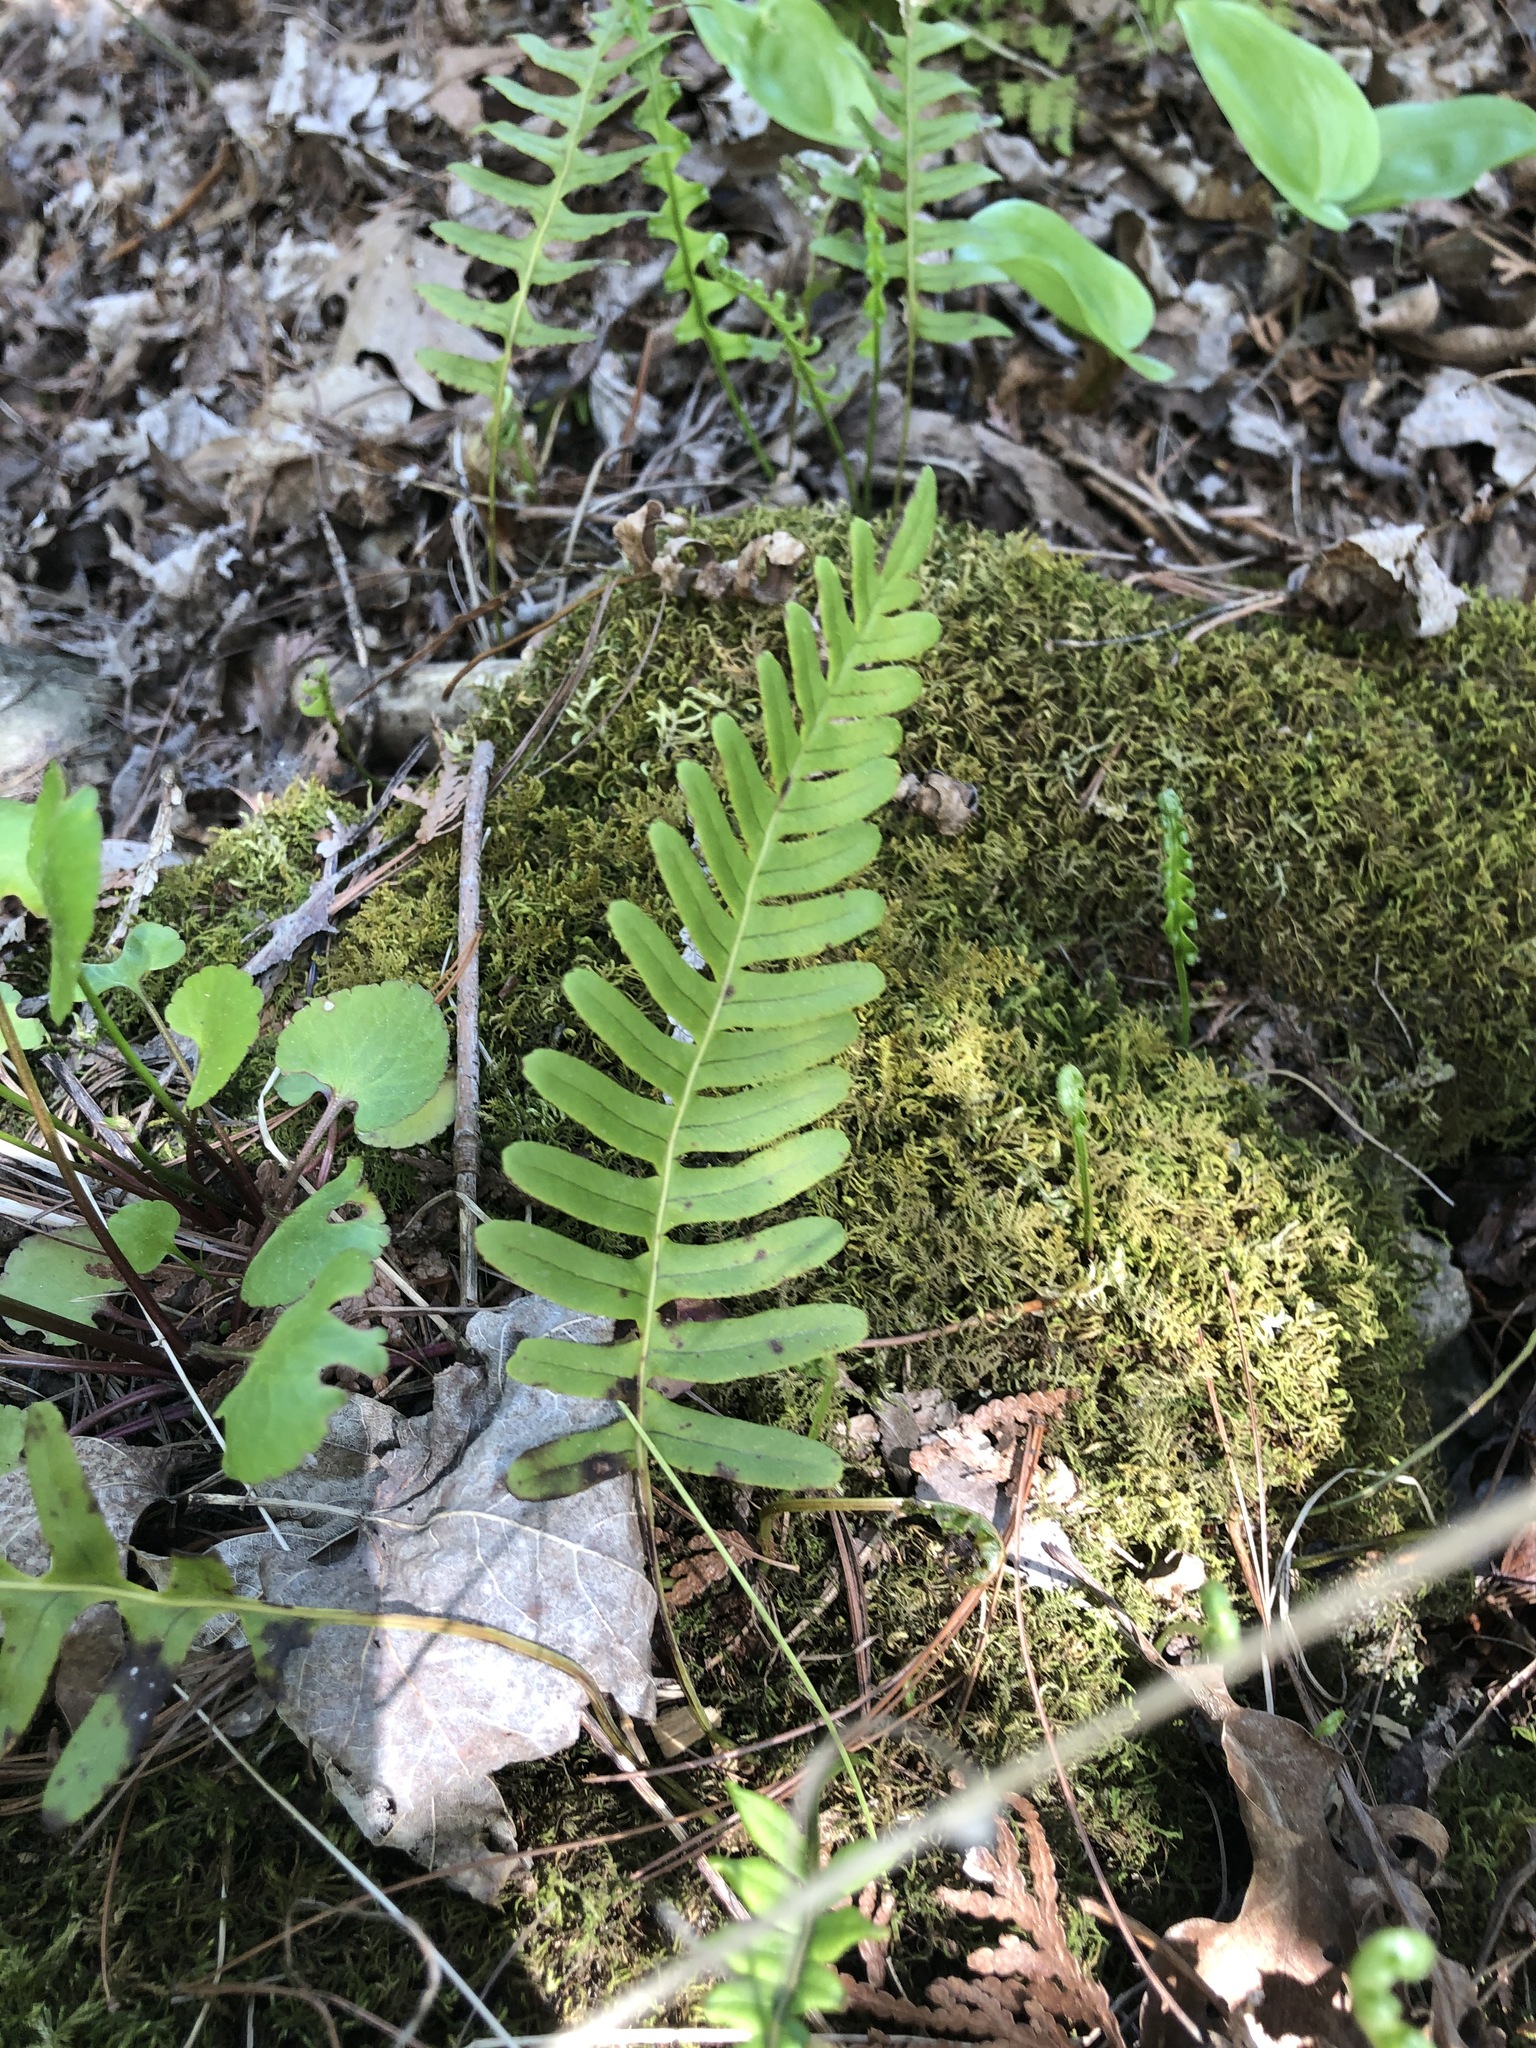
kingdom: Plantae
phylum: Tracheophyta
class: Polypodiopsida
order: Polypodiales
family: Polypodiaceae
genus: Polypodium
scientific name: Polypodium virginianum
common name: American wall fern
